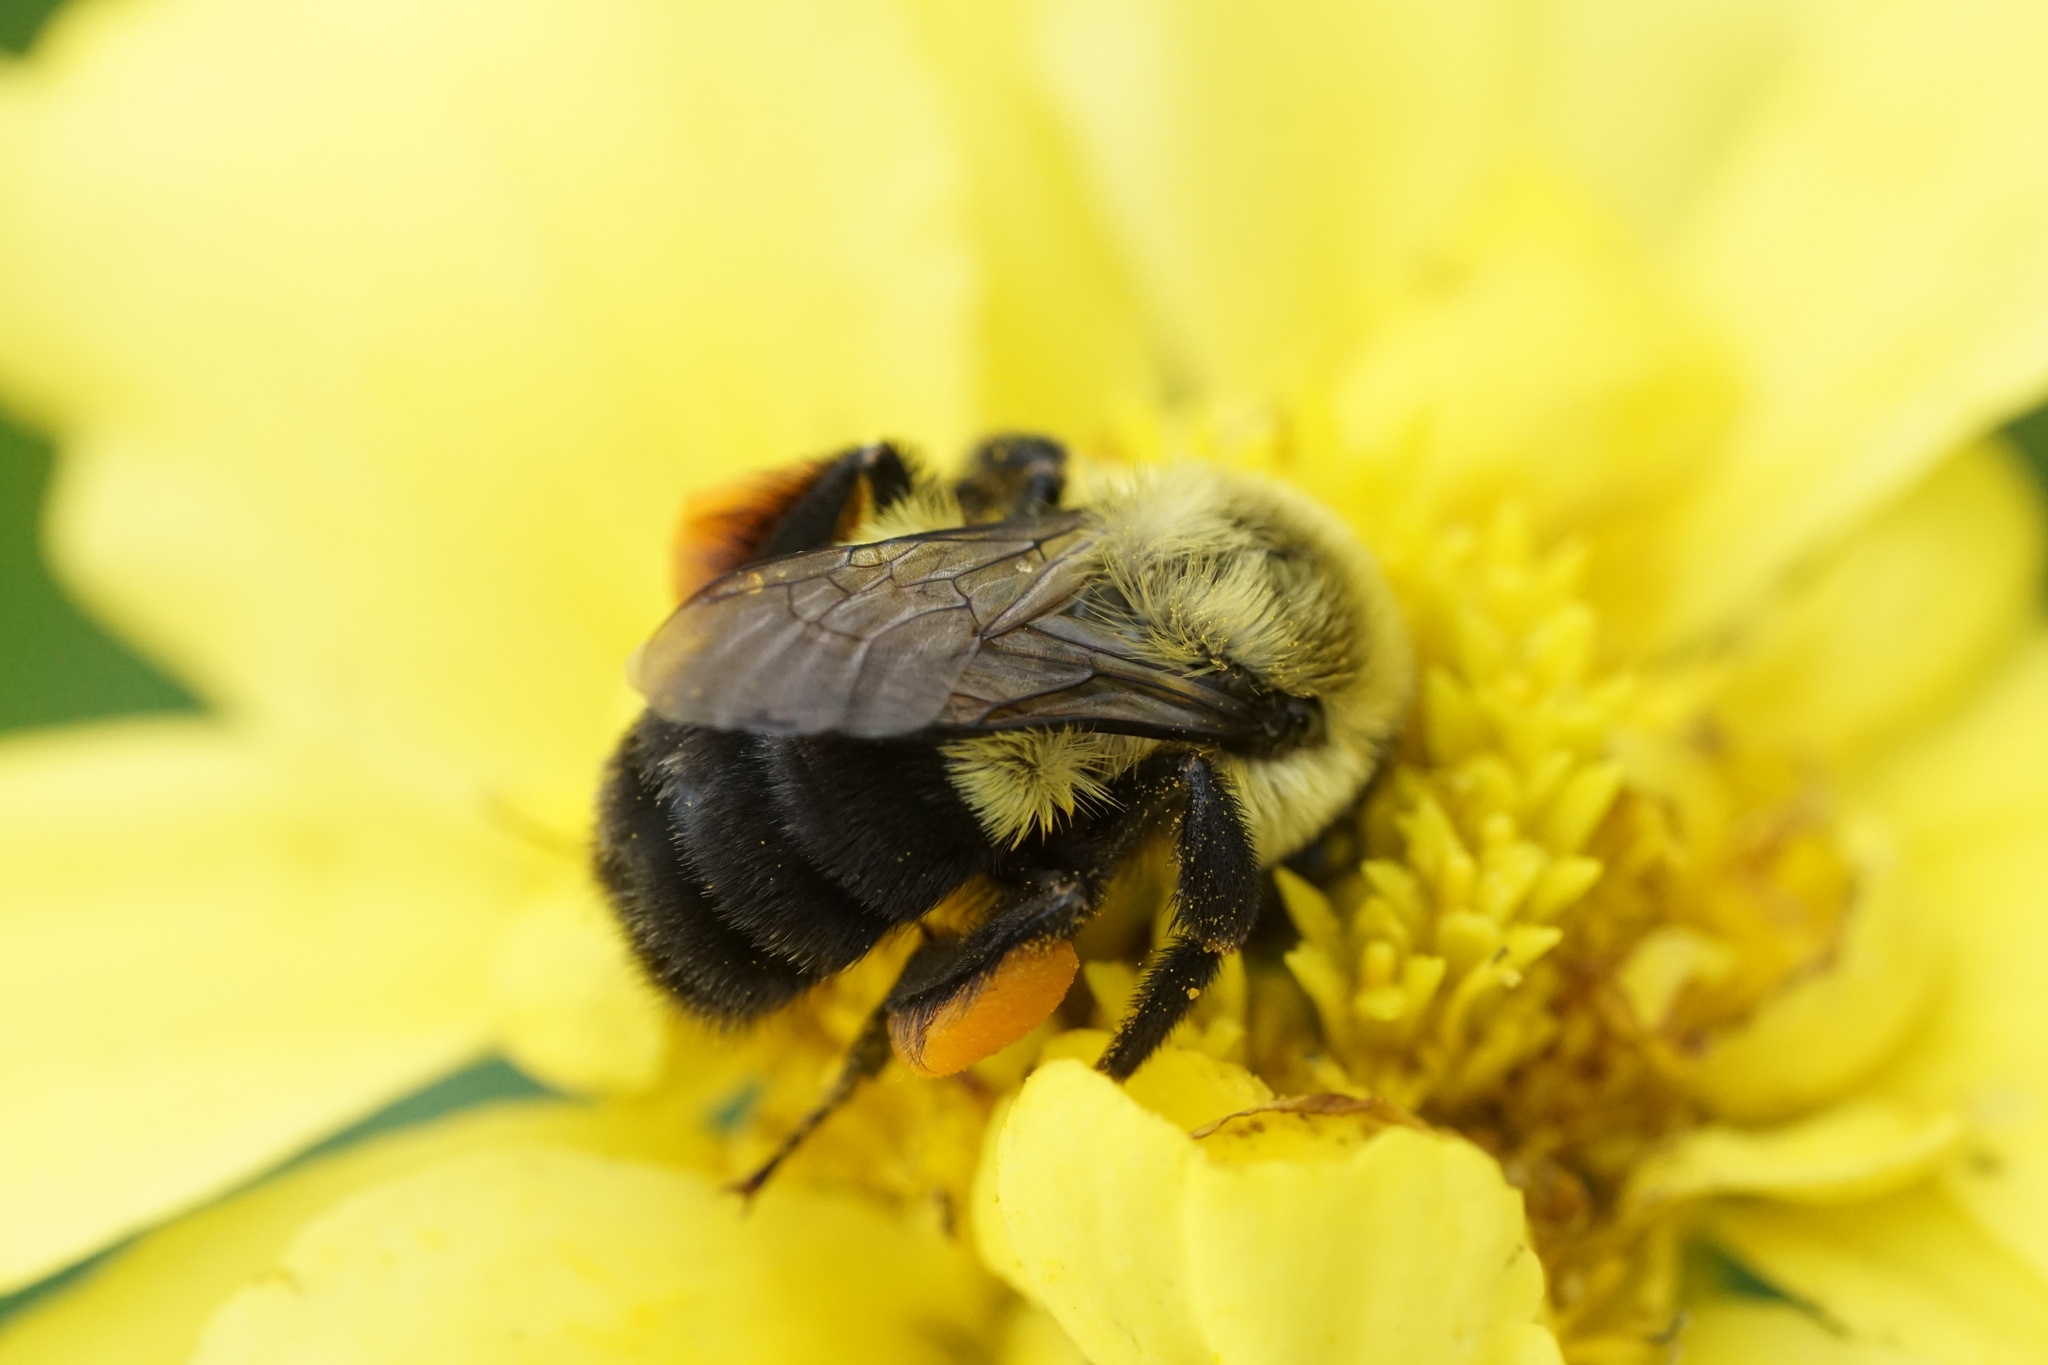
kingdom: Animalia
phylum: Arthropoda
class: Insecta
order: Hymenoptera
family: Apidae
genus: Bombus
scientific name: Bombus impatiens
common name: Common eastern bumble bee
